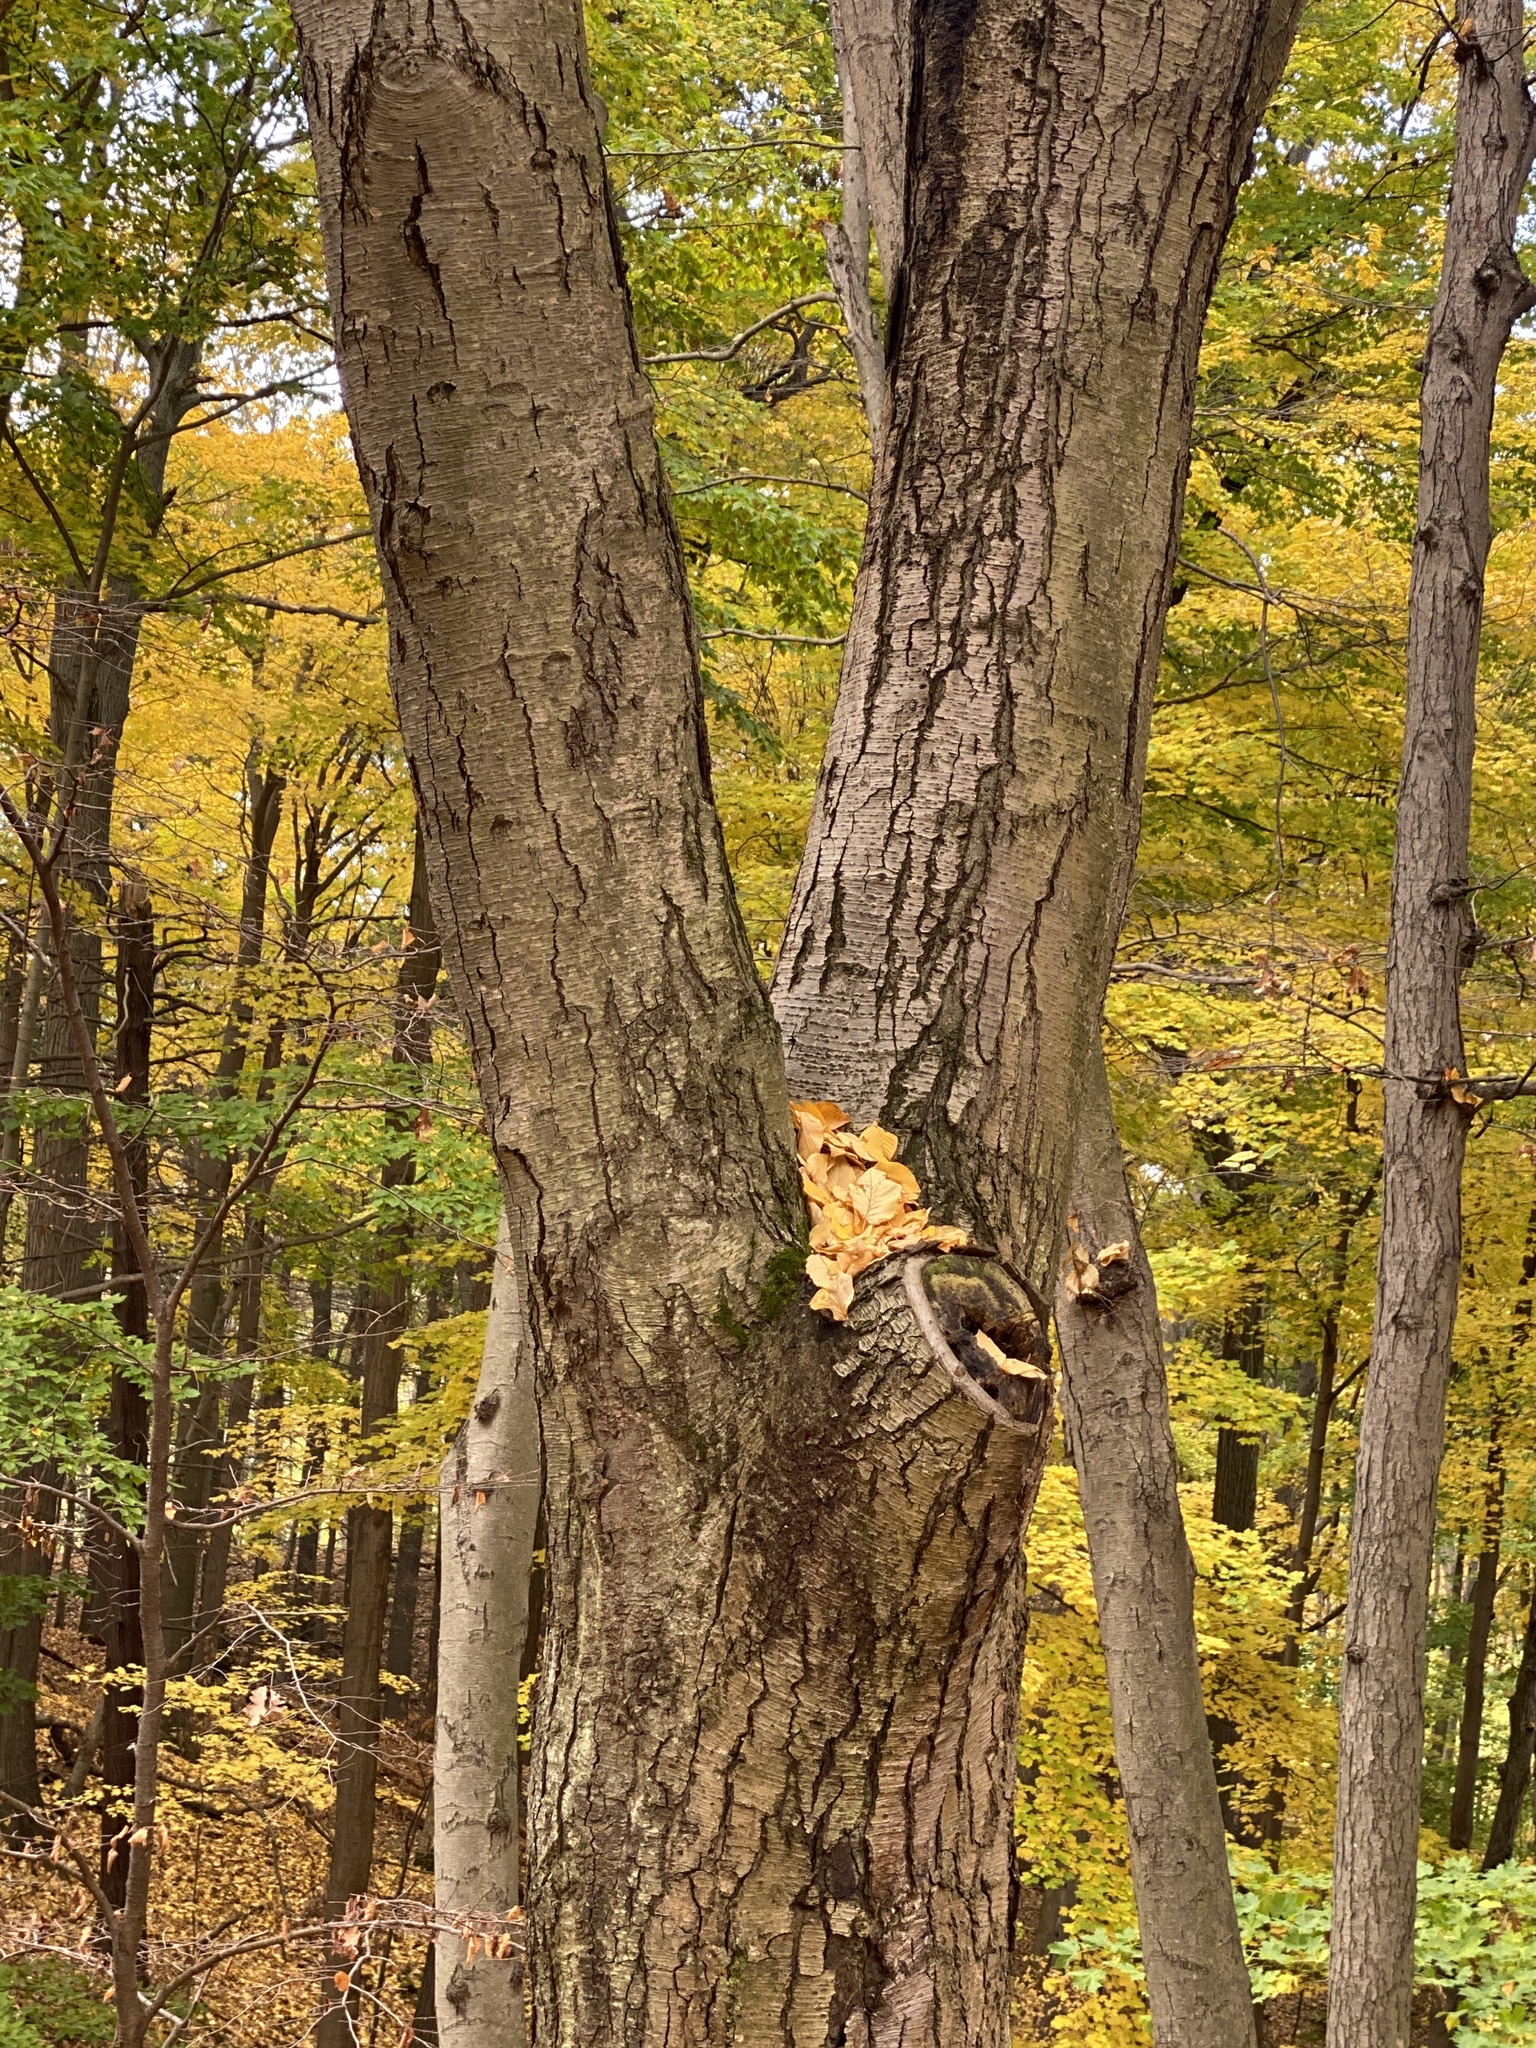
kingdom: Plantae
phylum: Tracheophyta
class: Magnoliopsida
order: Fagales
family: Betulaceae
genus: Betula
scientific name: Betula lenta
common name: Black birch
